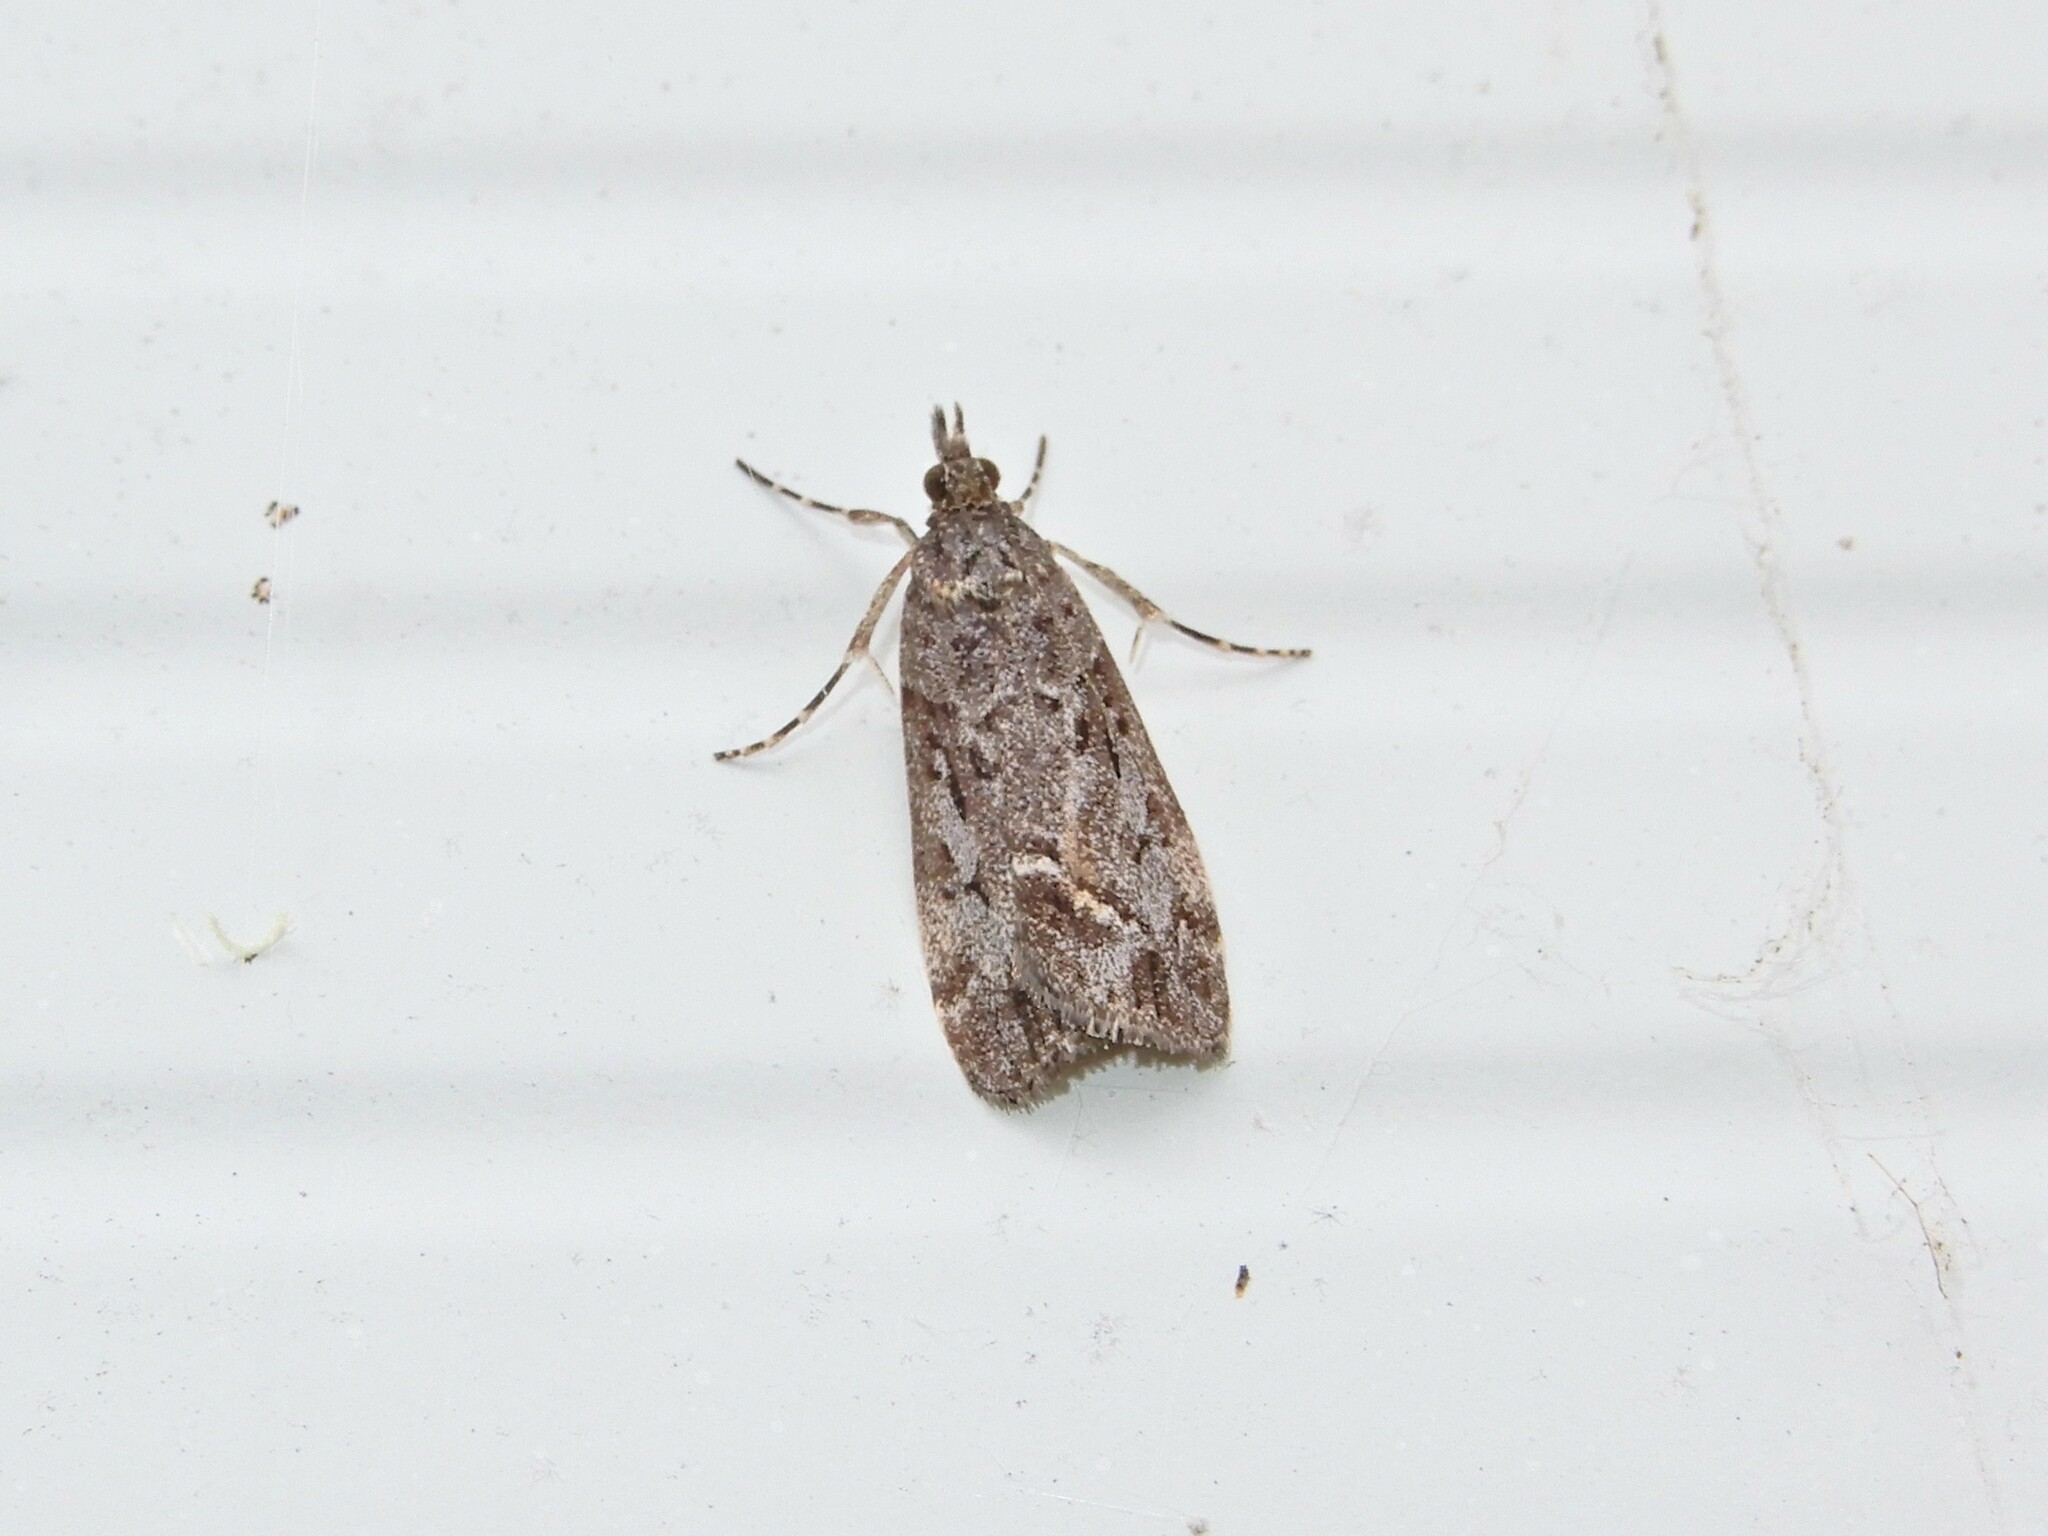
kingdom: Animalia
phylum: Arthropoda
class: Insecta
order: Lepidoptera
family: Crambidae
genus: Eudonia
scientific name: Eudonia submarginalis
